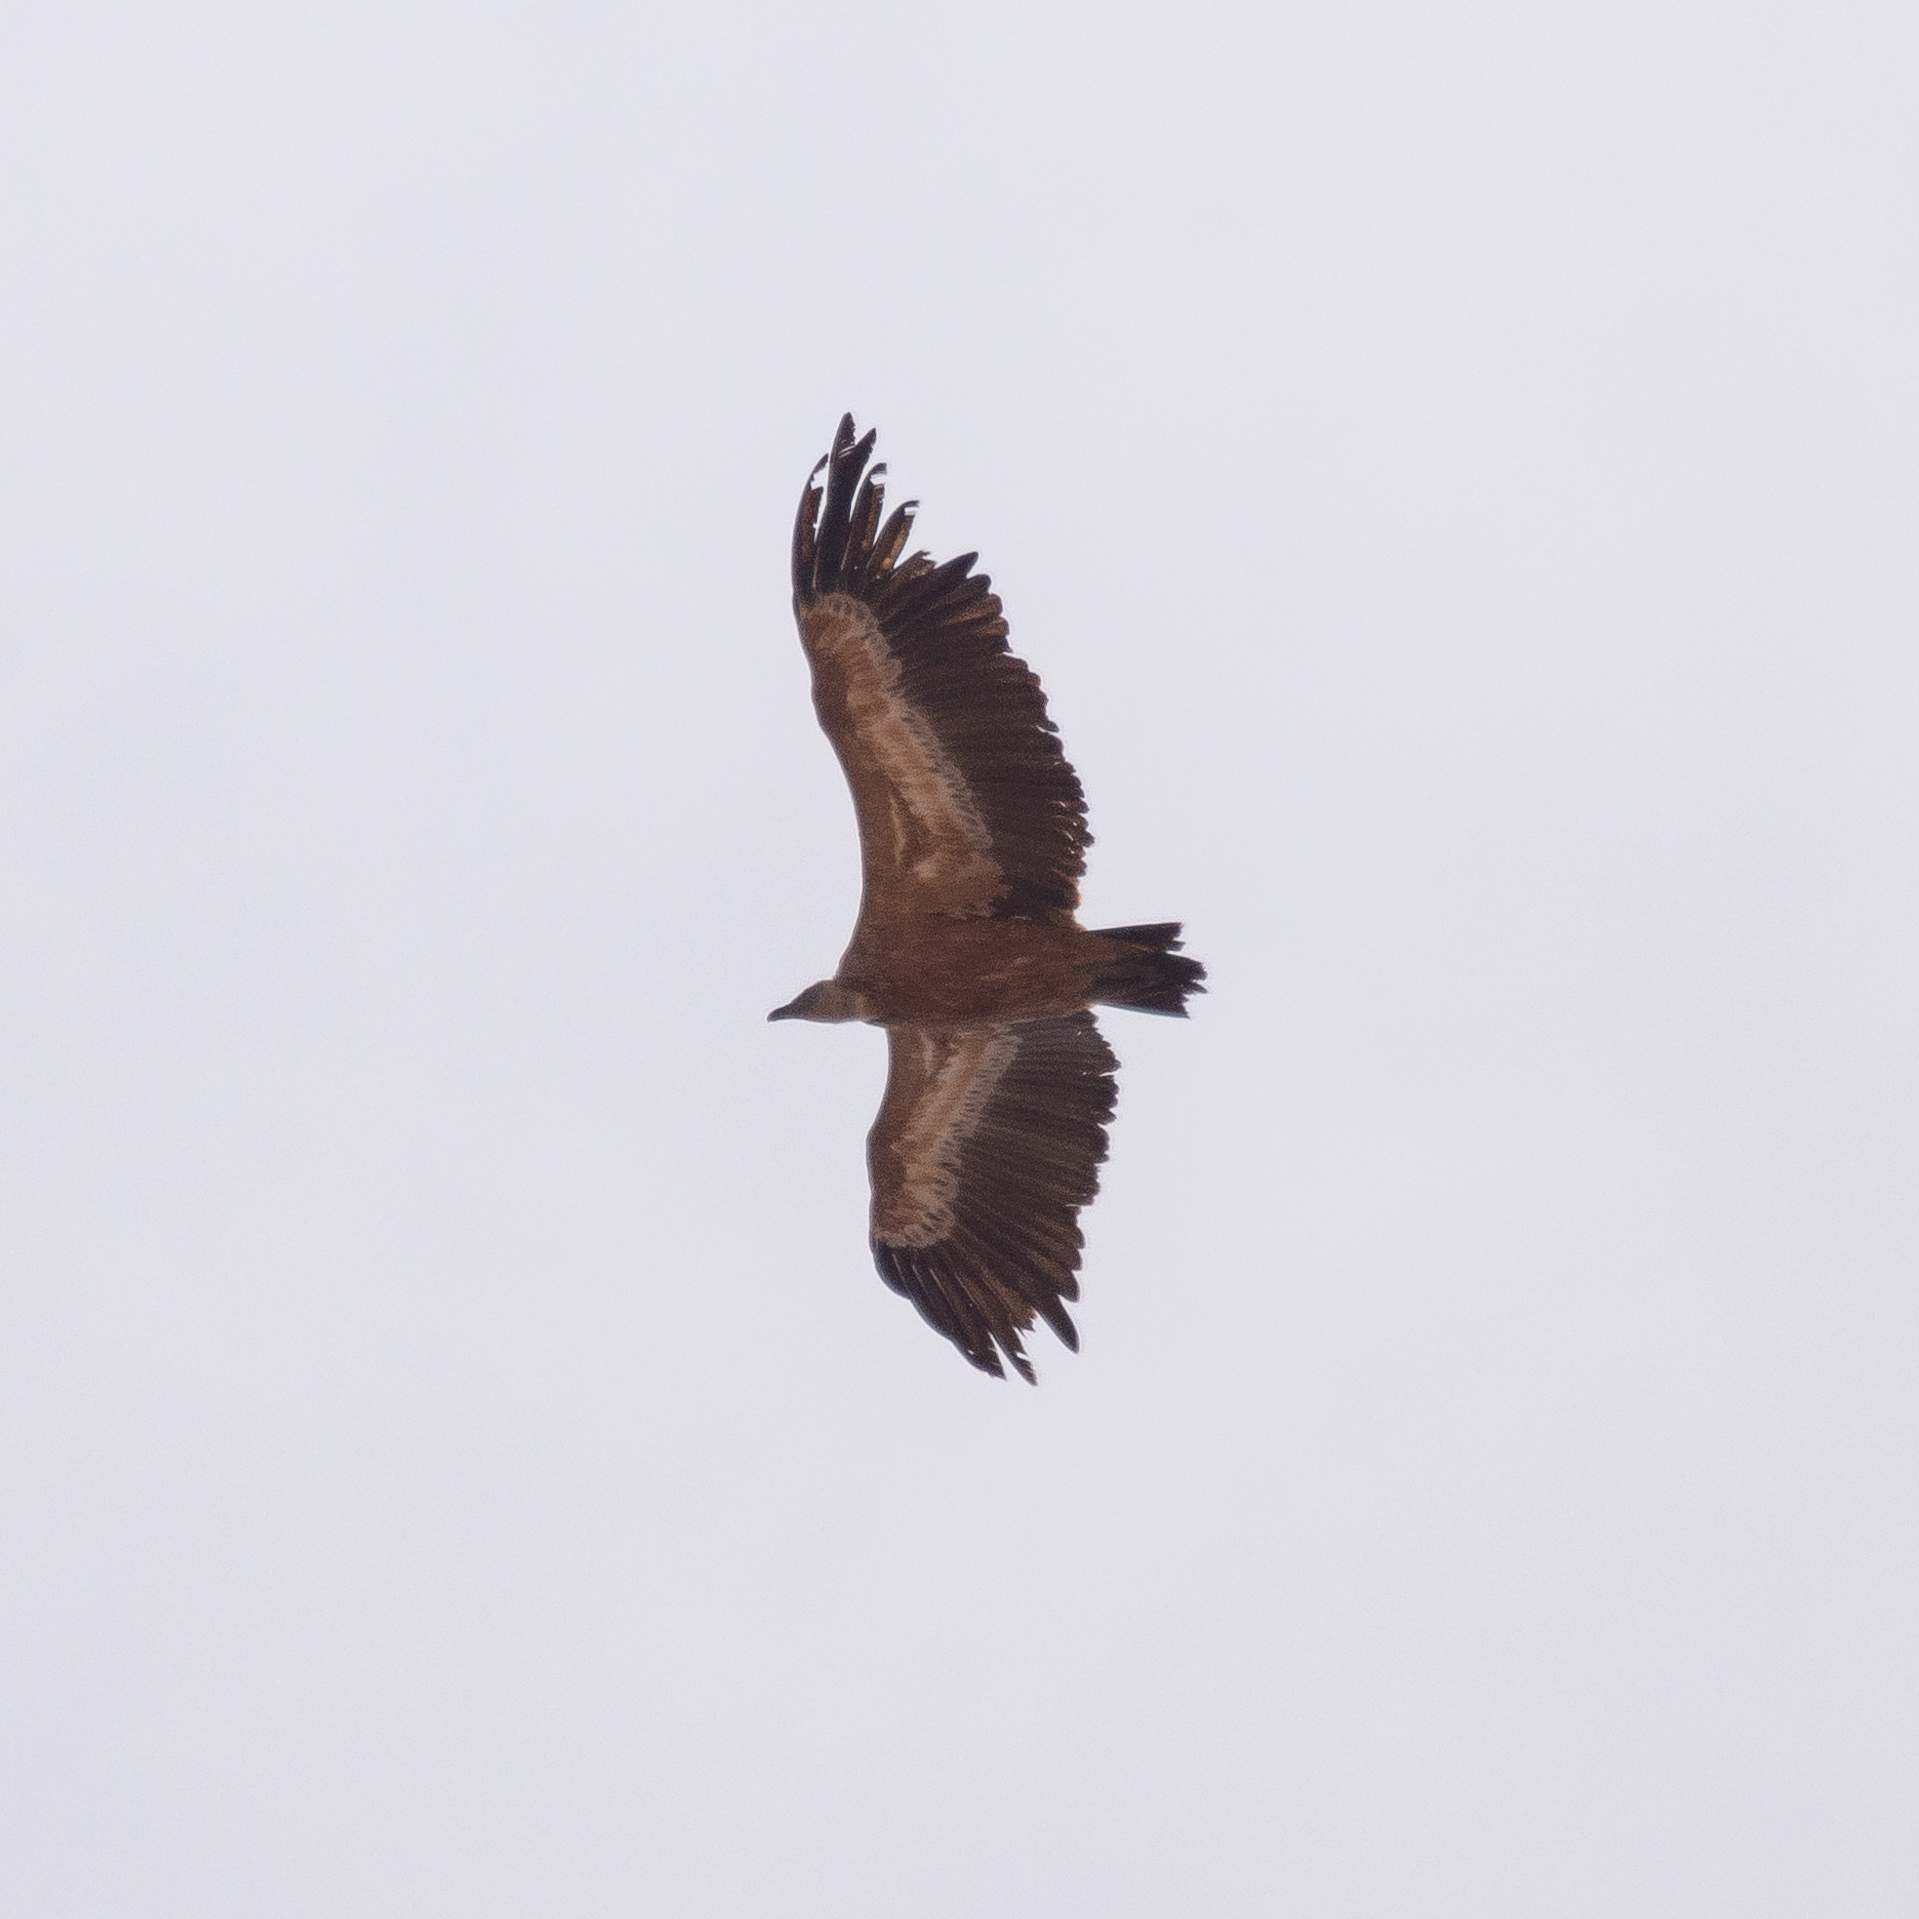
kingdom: Animalia
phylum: Chordata
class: Aves
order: Accipitriformes
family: Accipitridae
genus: Gyps
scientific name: Gyps fulvus
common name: Griffon vulture
